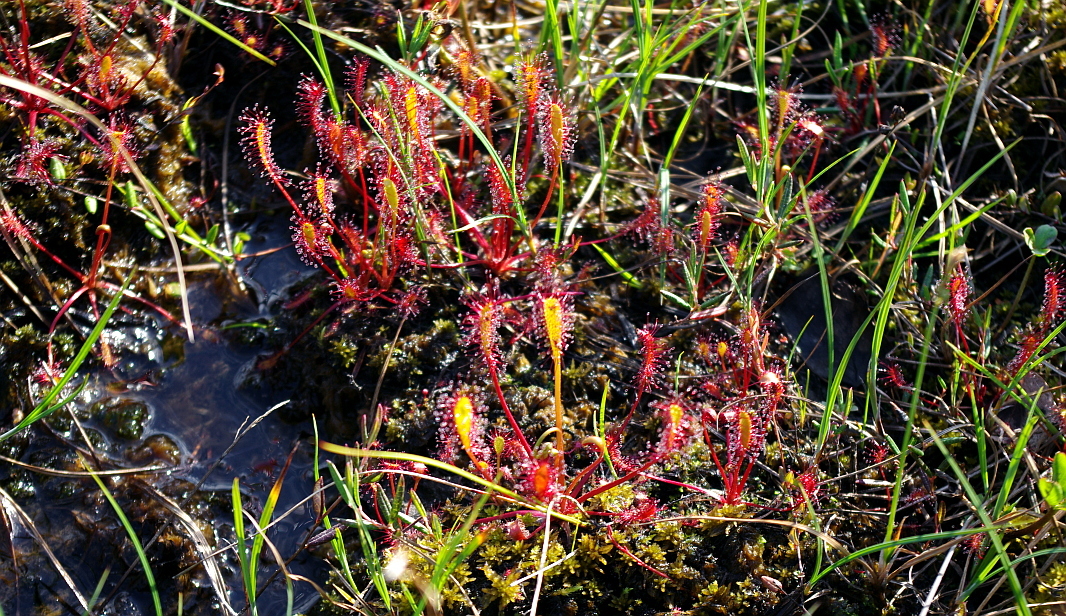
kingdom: Plantae
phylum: Tracheophyta
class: Magnoliopsida
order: Caryophyllales
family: Droseraceae
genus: Drosera
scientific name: Drosera anglica
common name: Great sundew
